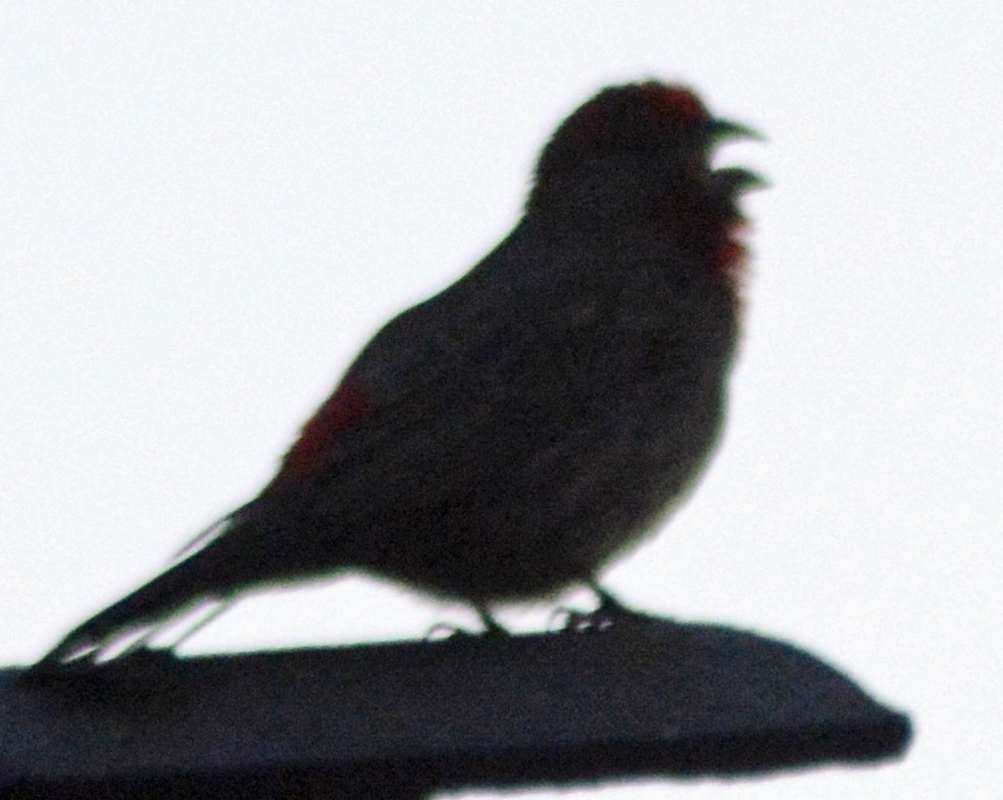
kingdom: Animalia
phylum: Chordata
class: Aves
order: Passeriformes
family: Fringillidae
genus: Haemorhous
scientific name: Haemorhous mexicanus
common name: House finch
